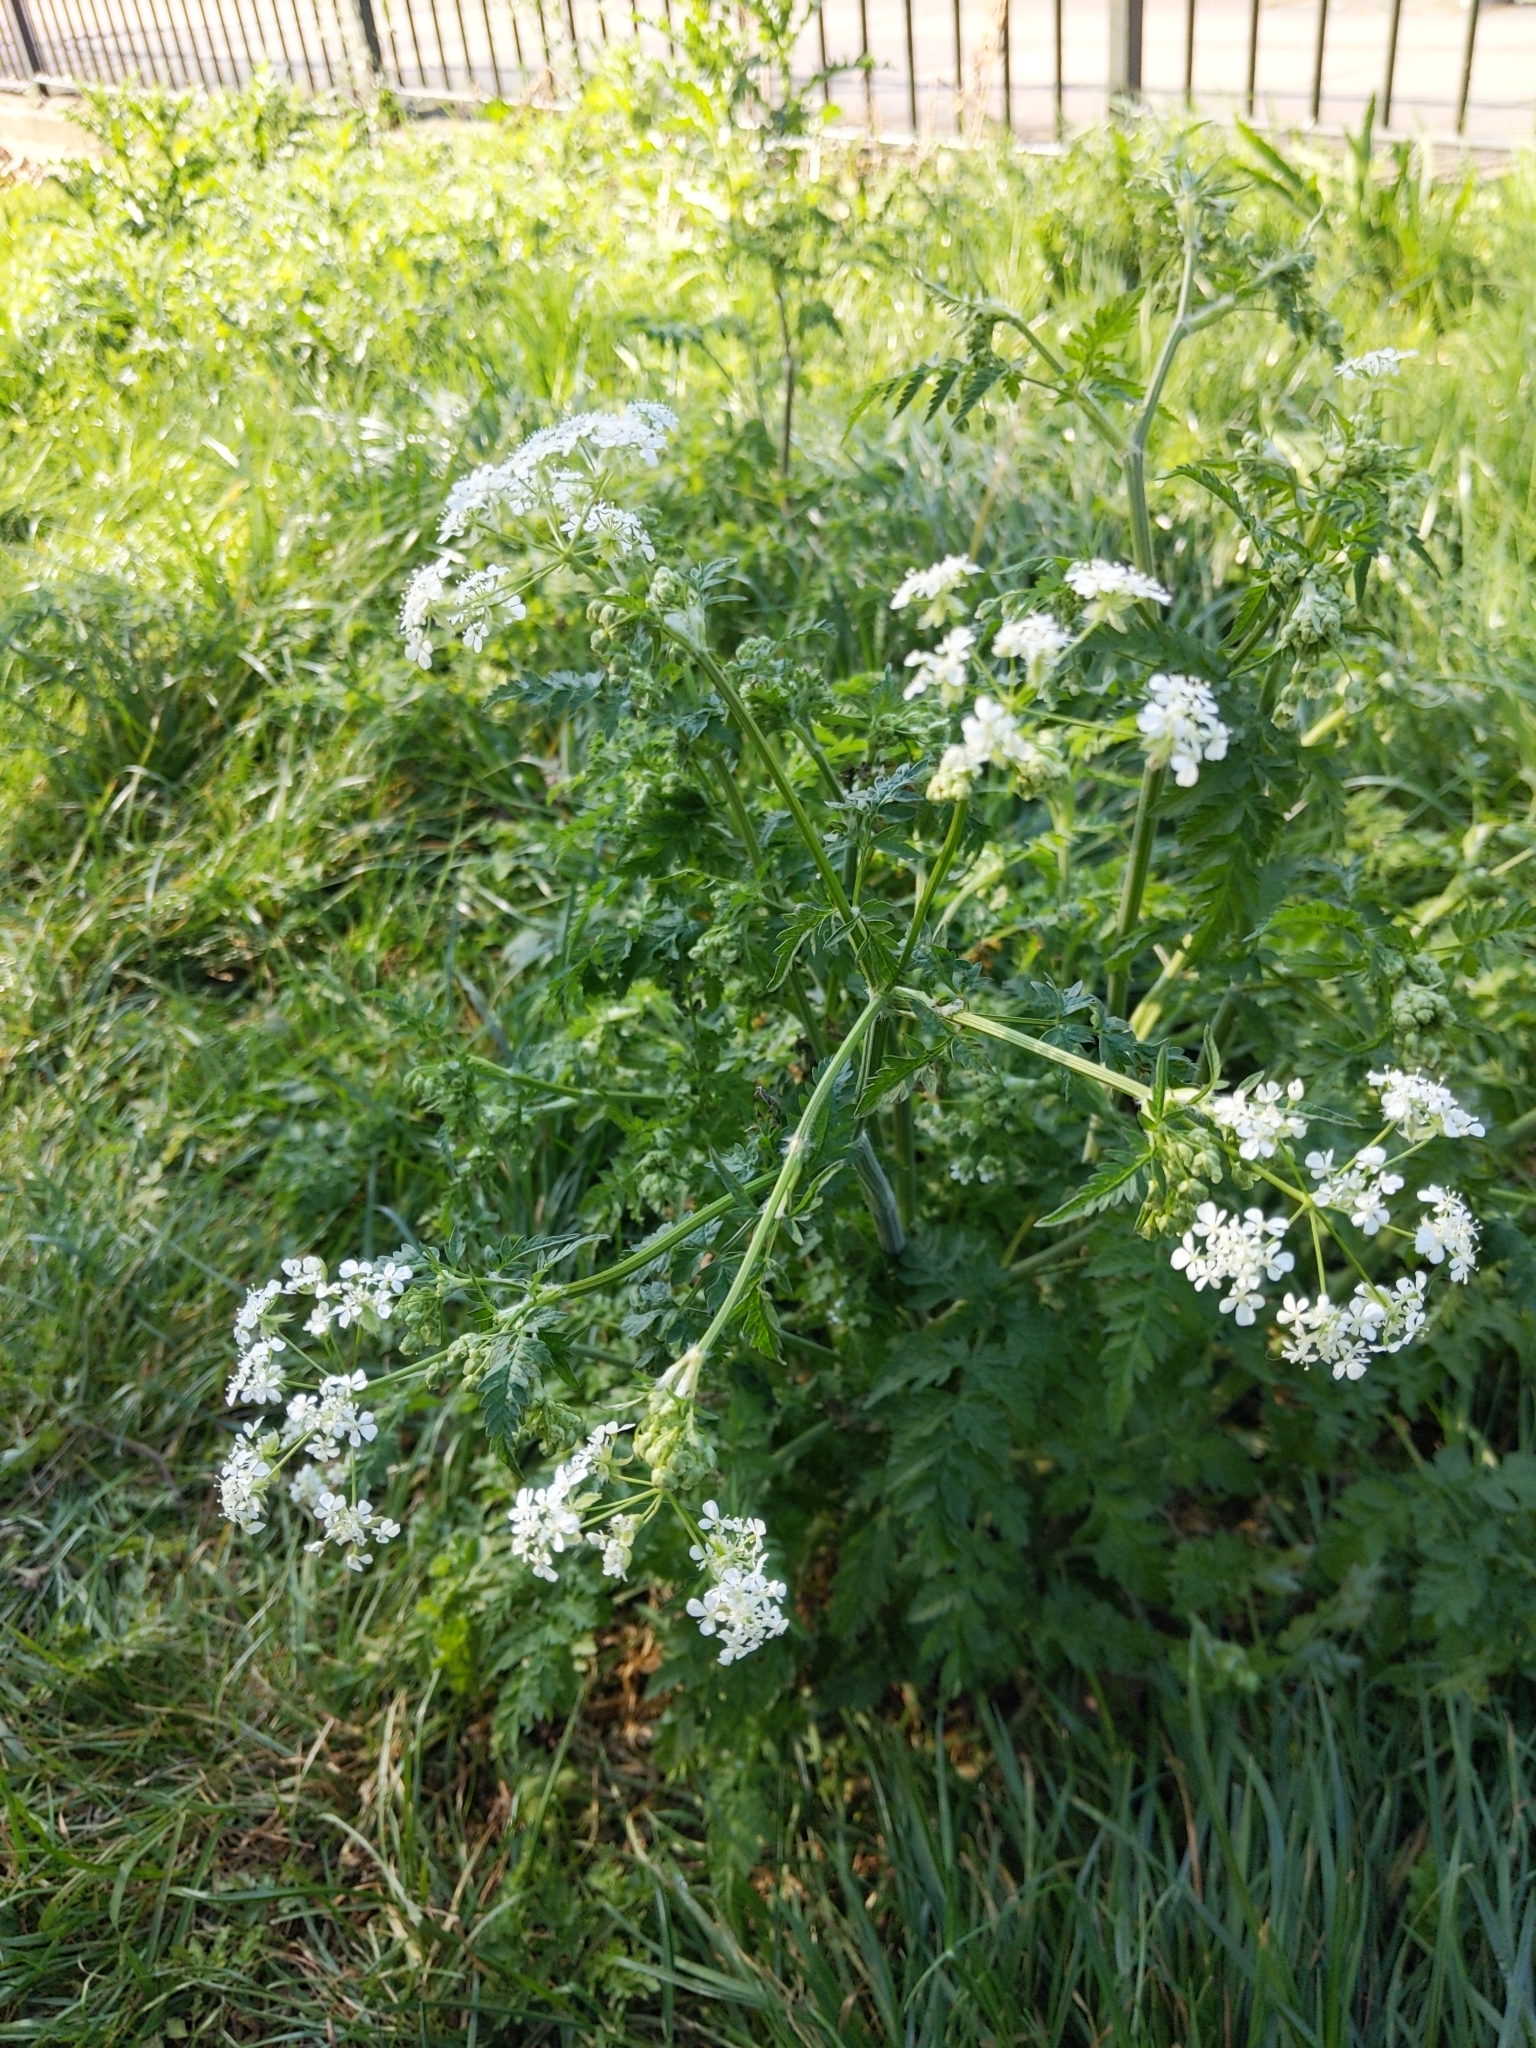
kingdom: Plantae
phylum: Tracheophyta
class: Magnoliopsida
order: Apiales
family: Apiaceae
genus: Anthriscus
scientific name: Anthriscus sylvestris
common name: Cow parsley
